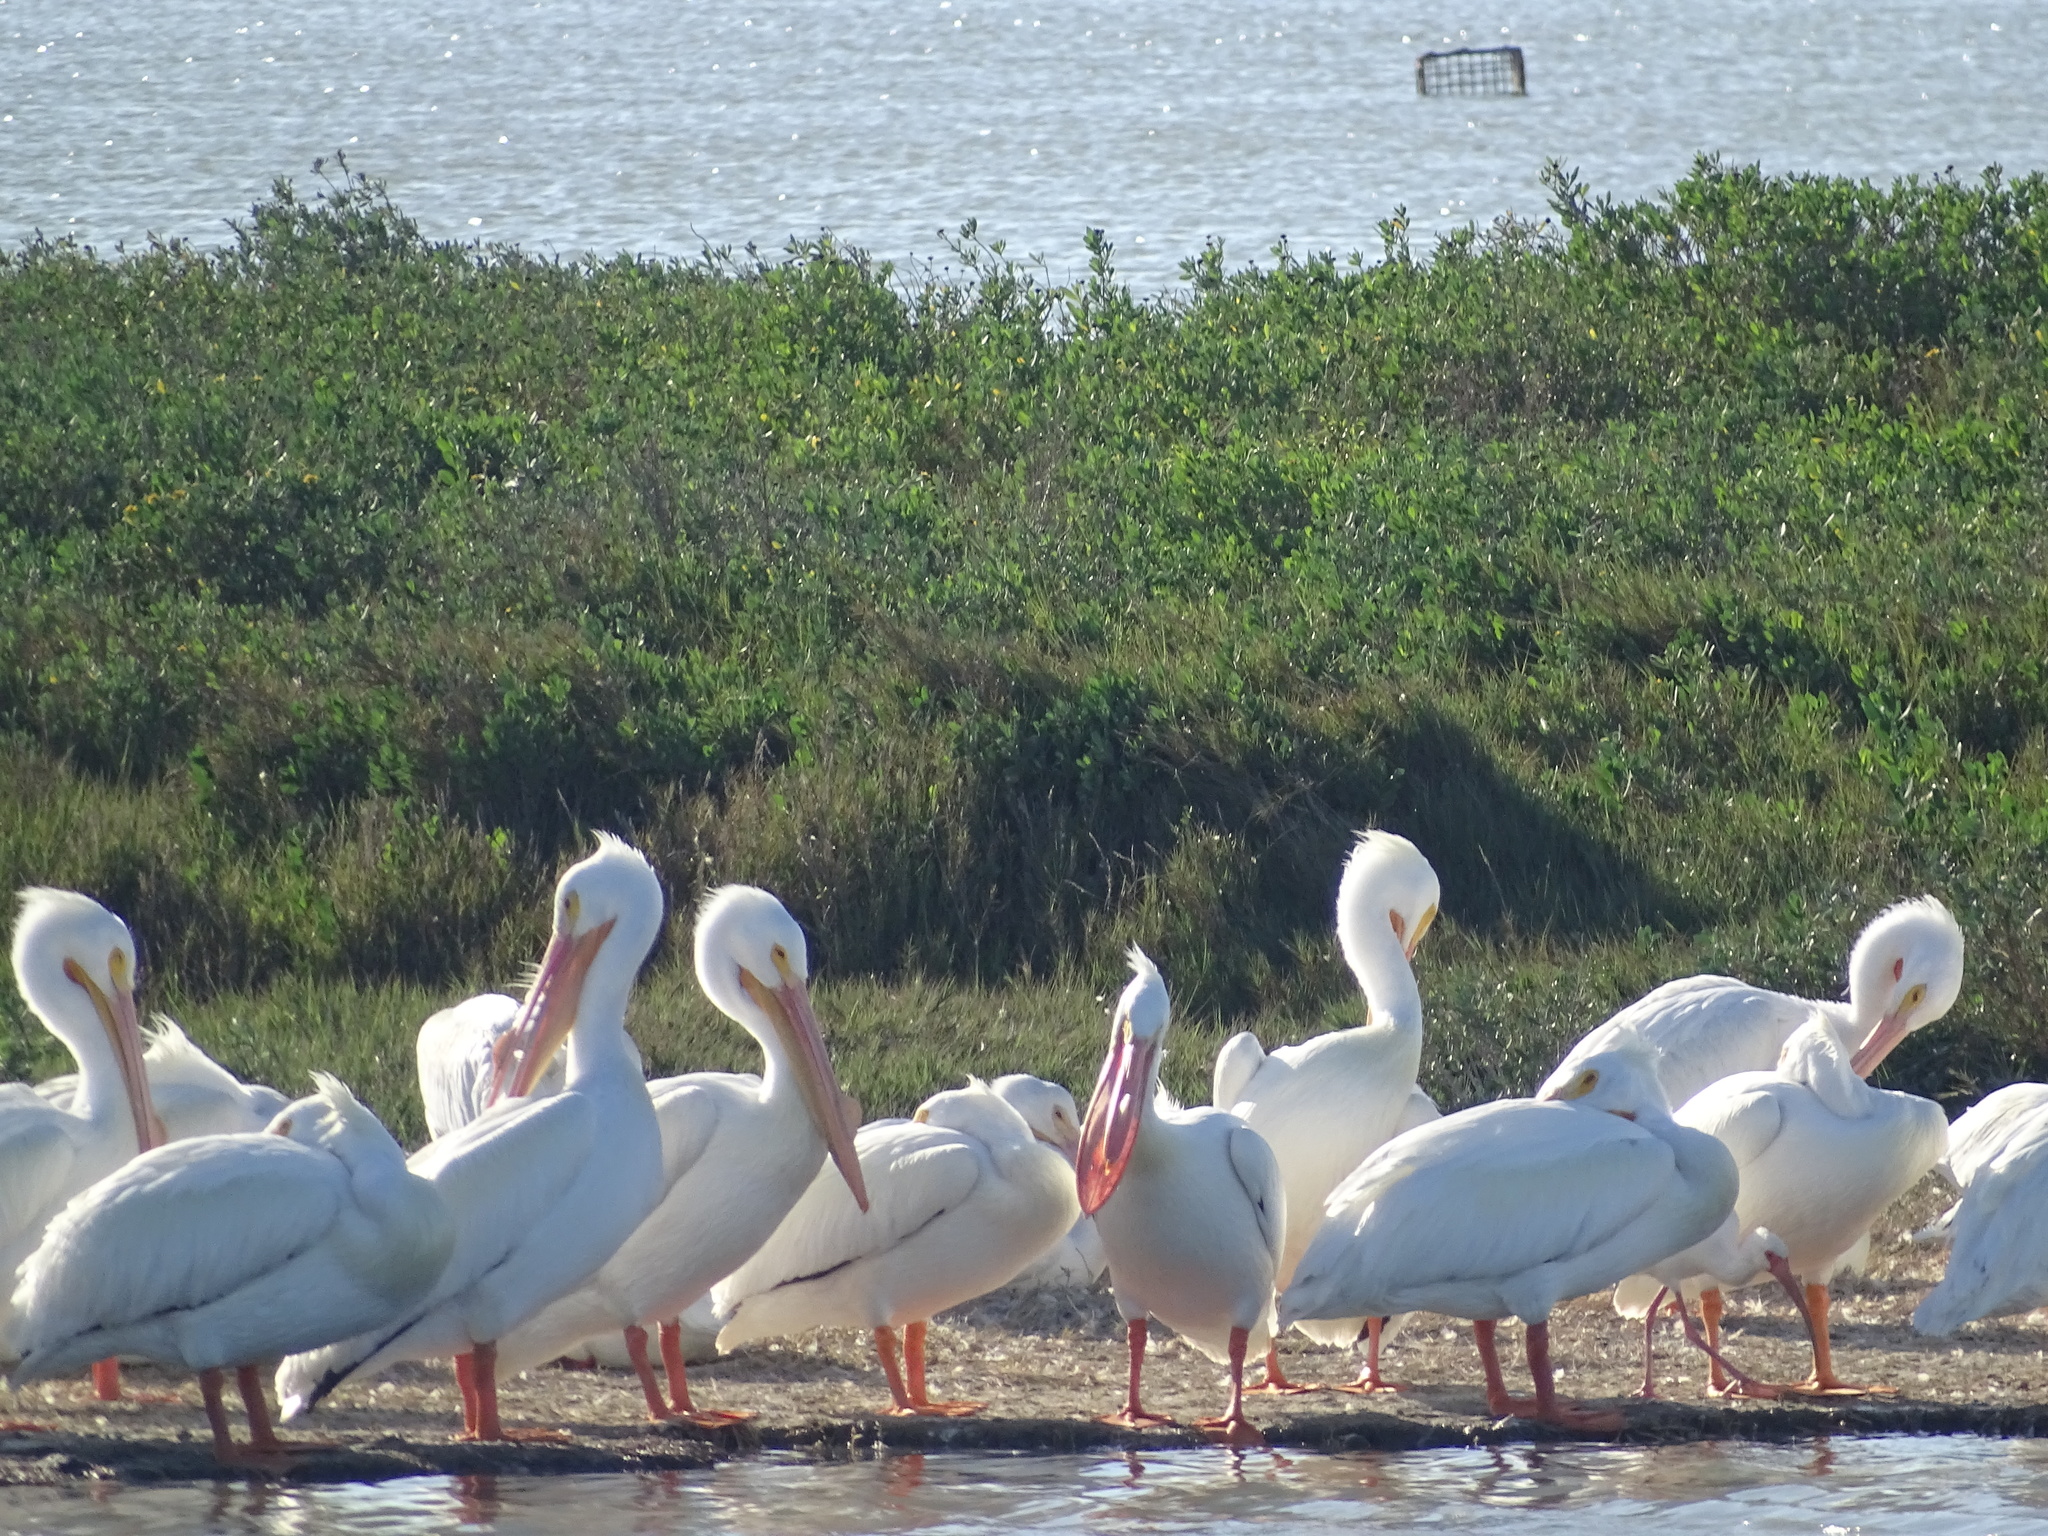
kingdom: Animalia
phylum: Chordata
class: Aves
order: Pelecaniformes
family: Pelecanidae
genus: Pelecanus
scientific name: Pelecanus erythrorhynchos
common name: American white pelican
